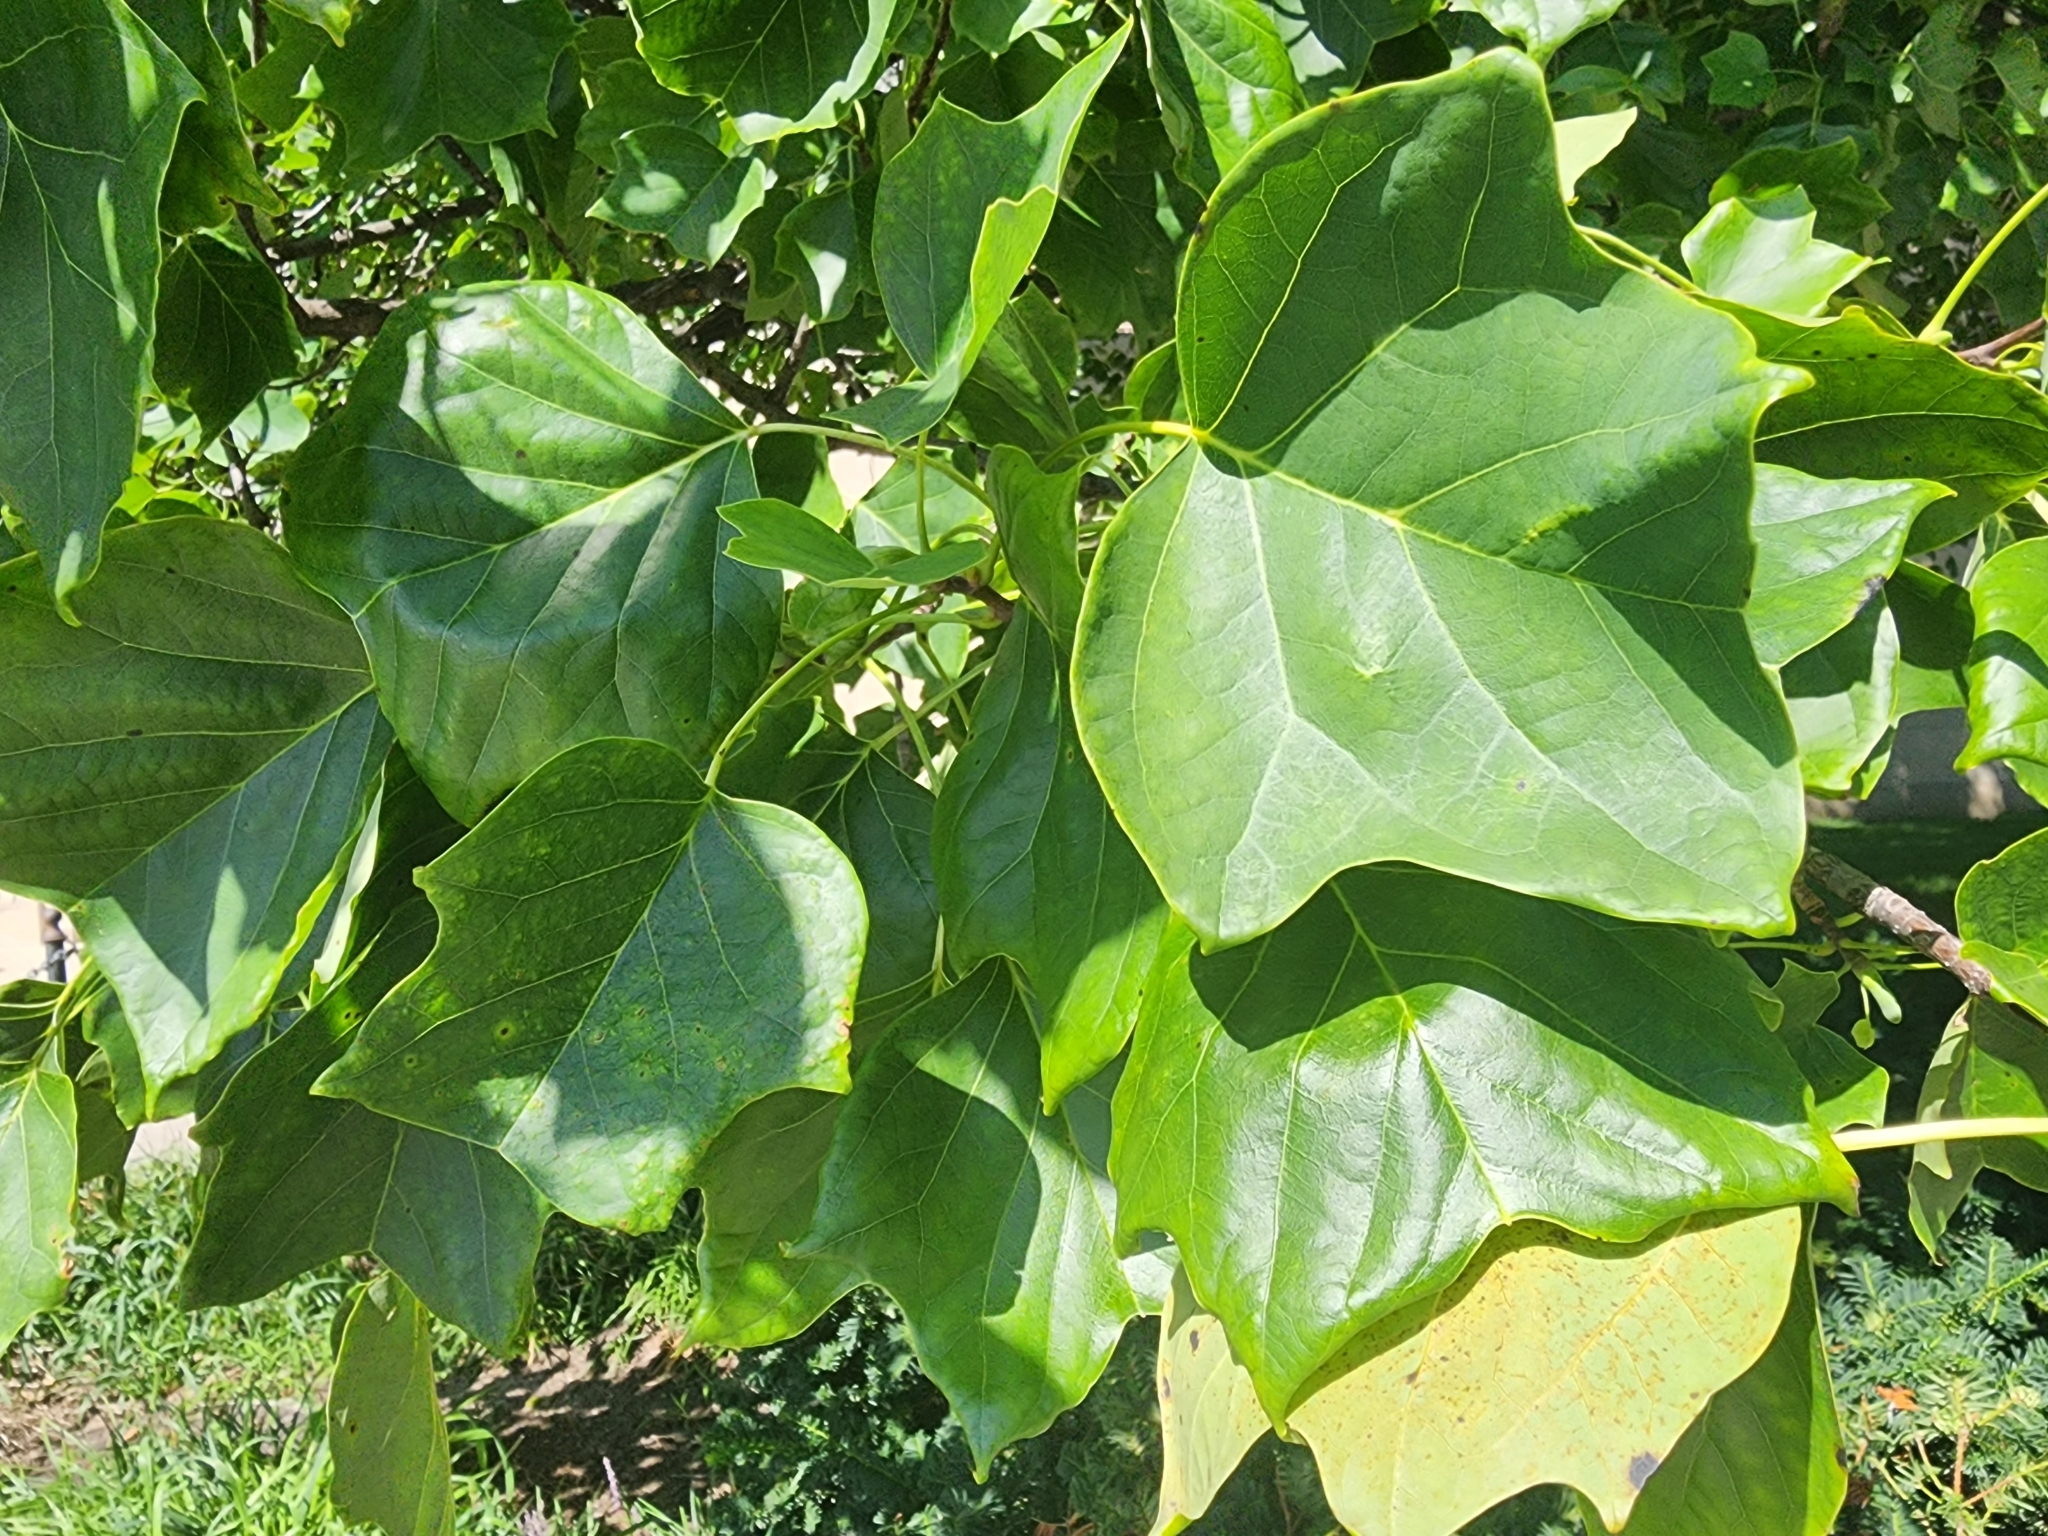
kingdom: Plantae
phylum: Tracheophyta
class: Magnoliopsida
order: Magnoliales
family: Magnoliaceae
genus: Liriodendron
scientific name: Liriodendron tulipifera
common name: Tulip tree
